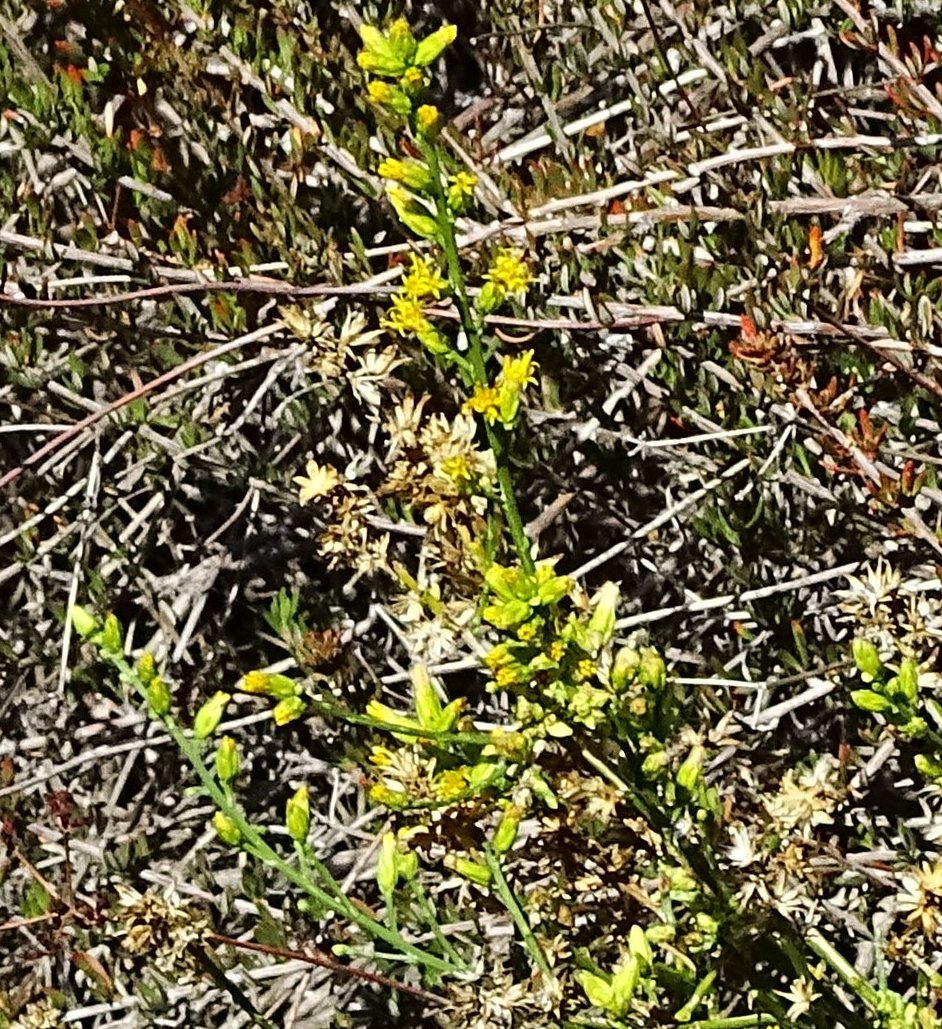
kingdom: Plantae
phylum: Tracheophyta
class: Magnoliopsida
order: Asterales
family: Asteraceae
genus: Lepidospartum
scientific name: Lepidospartum squamatum
